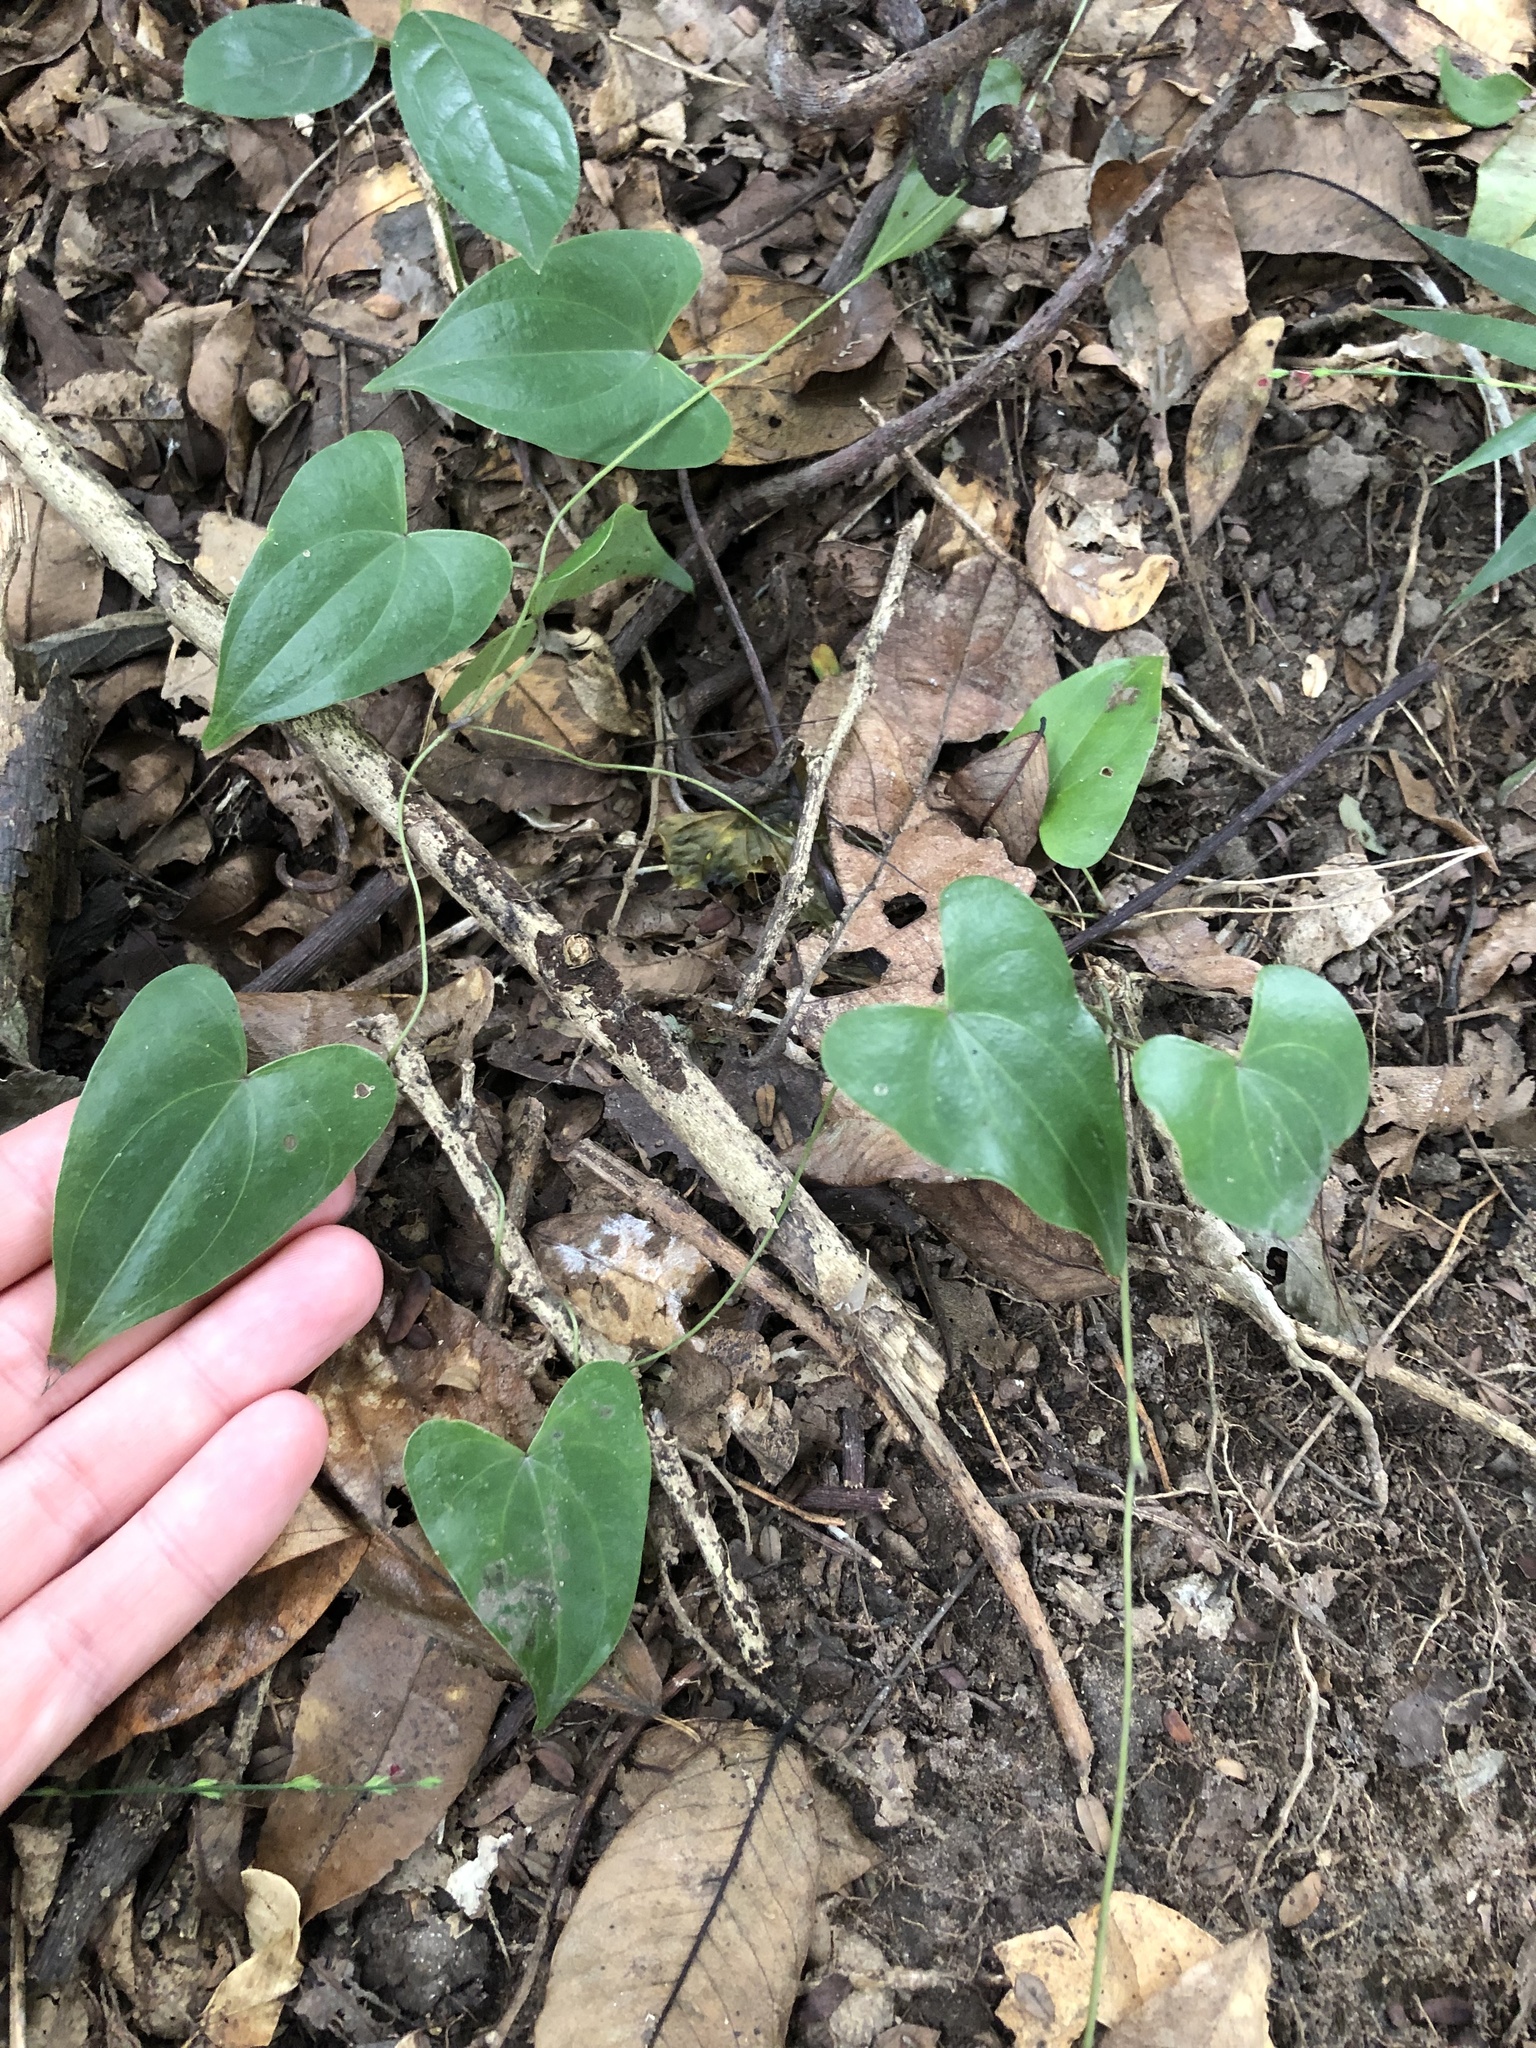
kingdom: Plantae
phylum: Tracheophyta
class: Liliopsida
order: Dioscoreales
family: Dioscoreaceae
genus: Dioscorea
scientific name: Dioscorea cotinifolia
